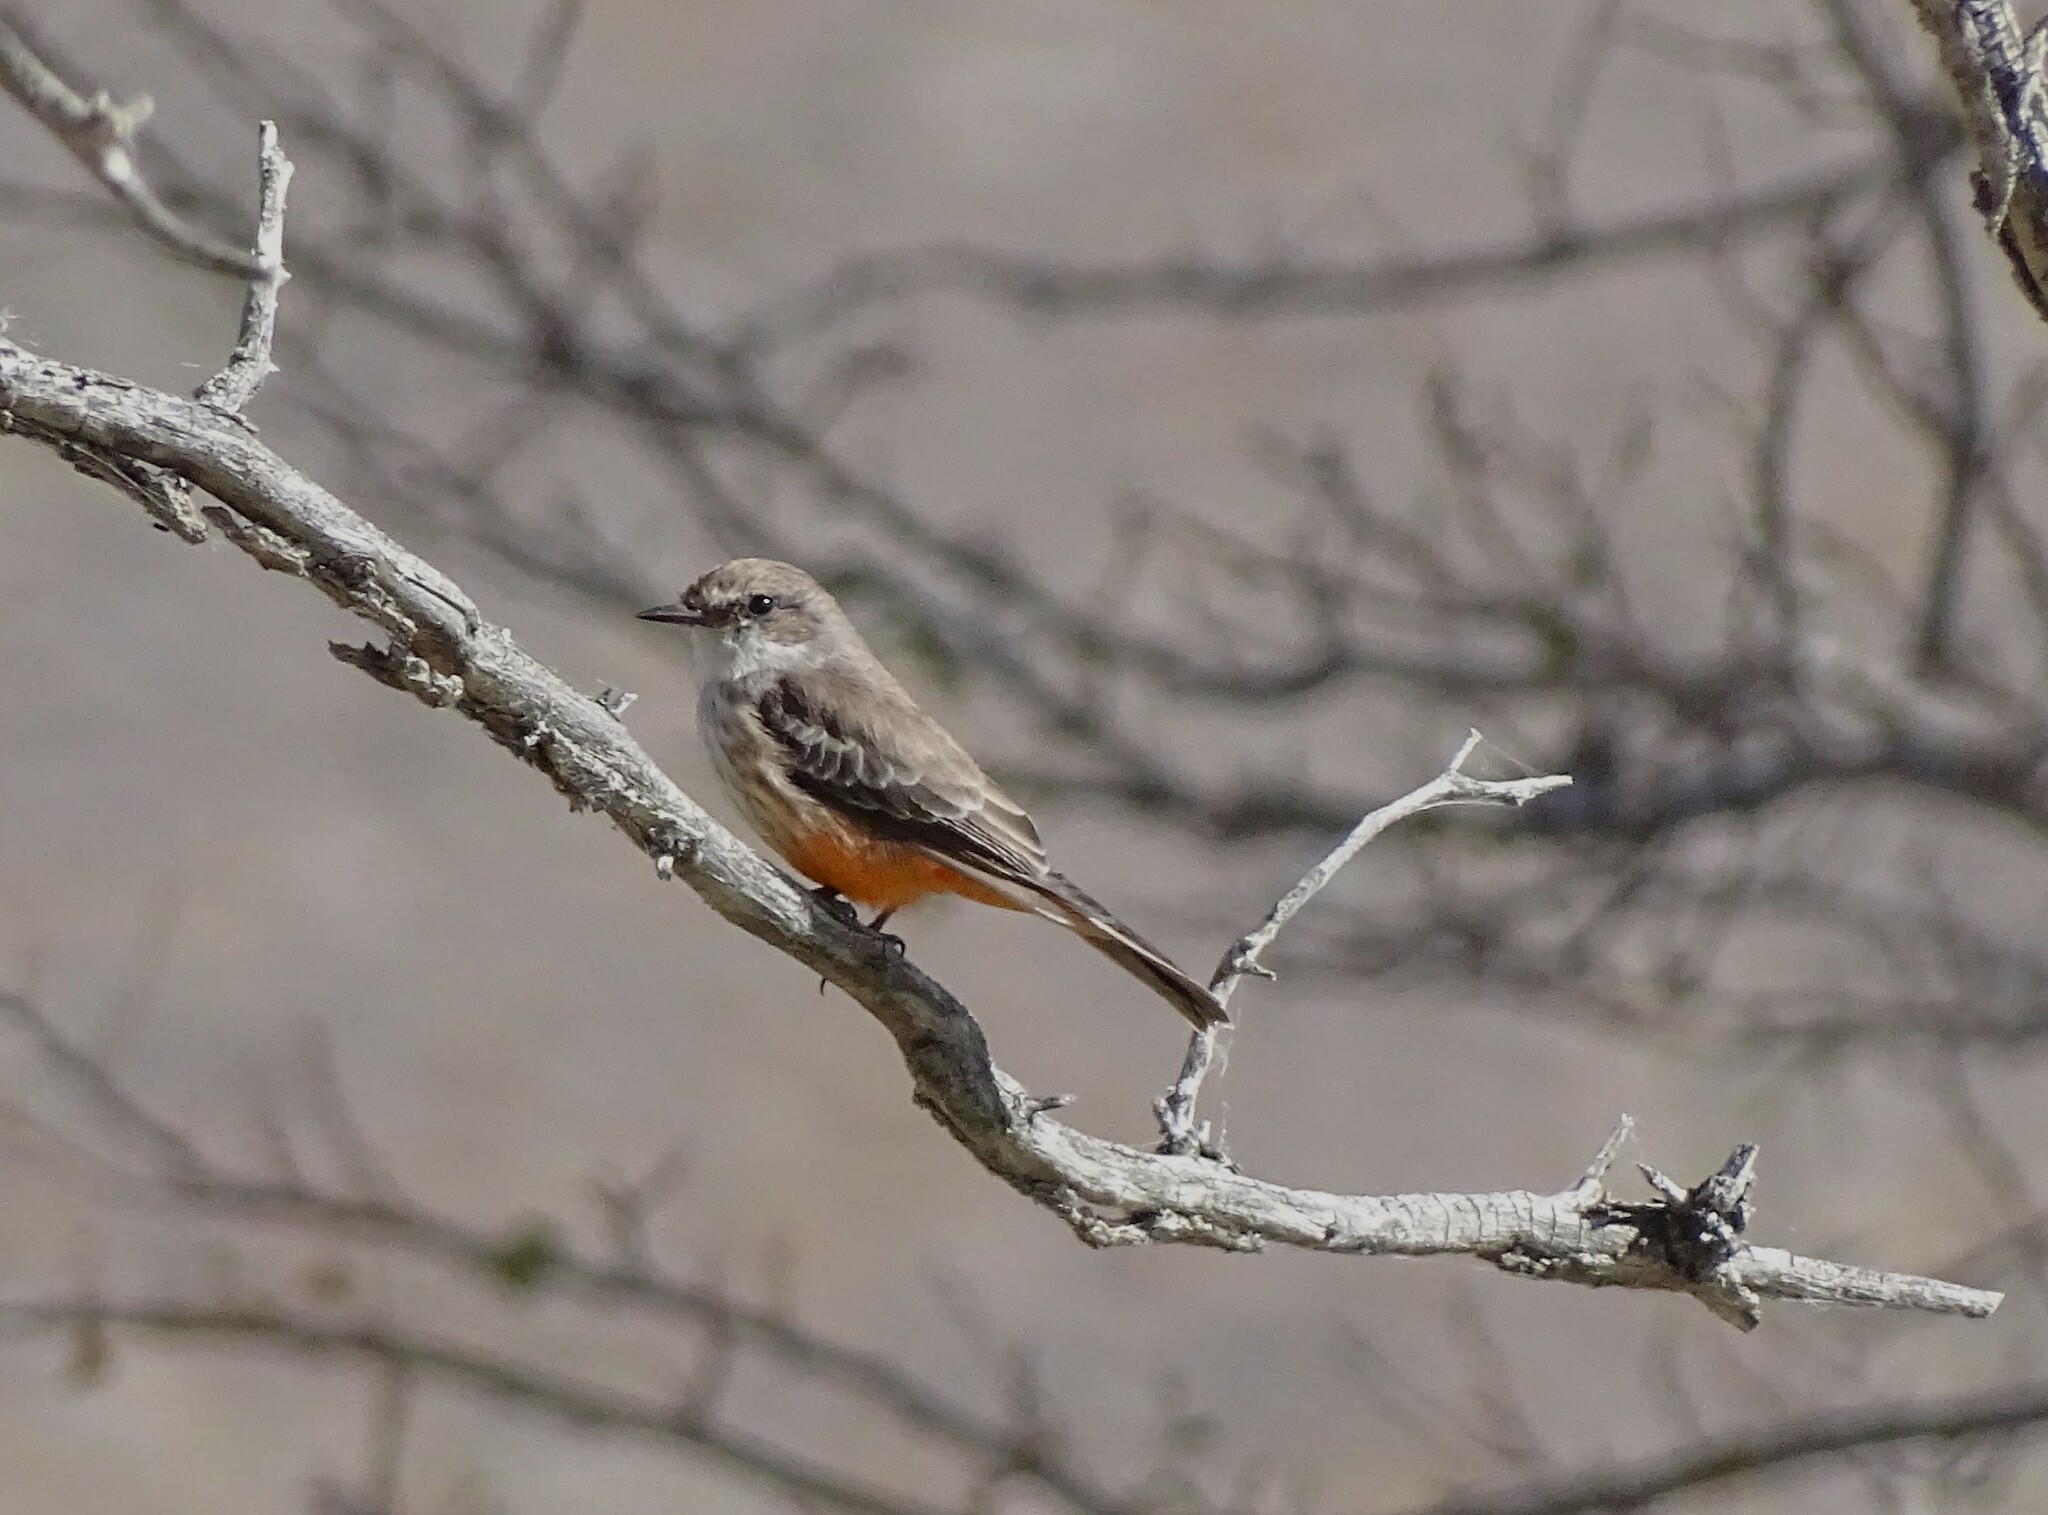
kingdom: Animalia
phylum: Chordata
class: Aves
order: Passeriformes
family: Tyrannidae
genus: Pyrocephalus
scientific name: Pyrocephalus rubinus
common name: Vermilion flycatcher
